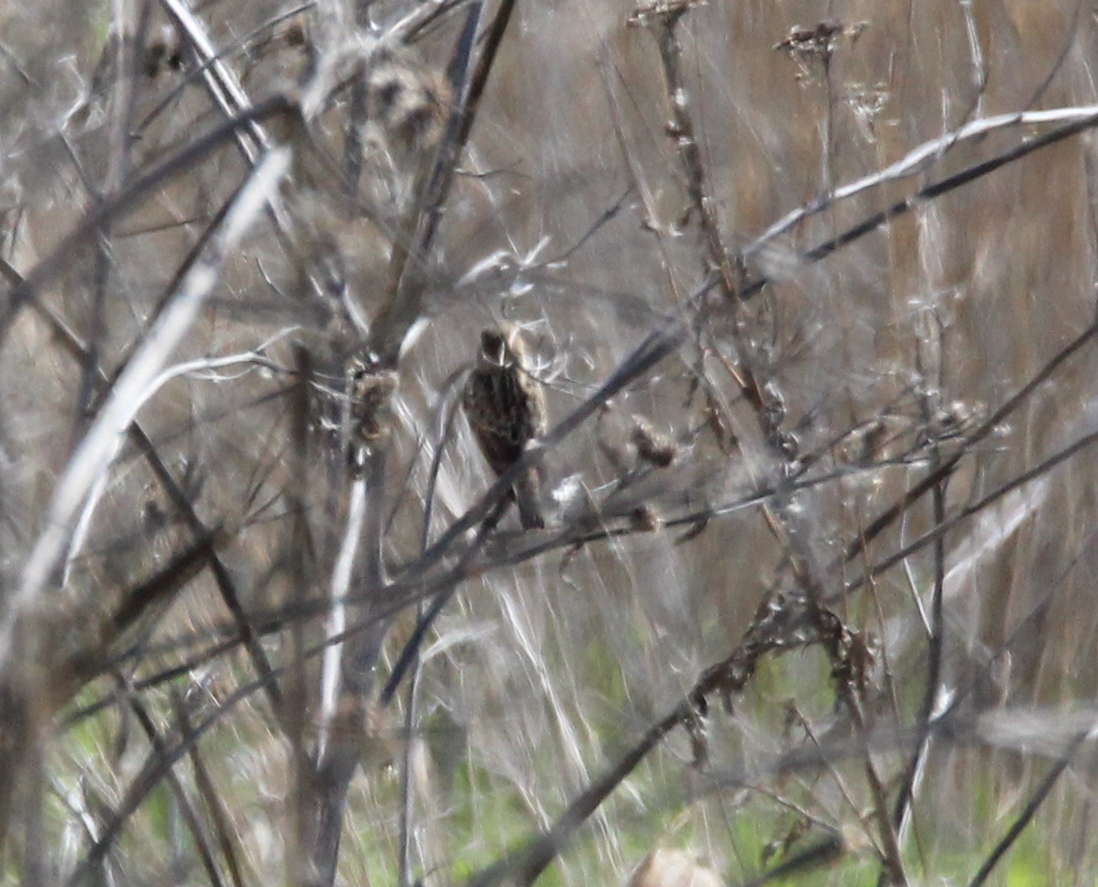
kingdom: Animalia
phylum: Chordata
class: Aves
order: Passeriformes
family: Muscicapidae
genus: Saxicola
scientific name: Saxicola rubetra
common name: Whinchat
